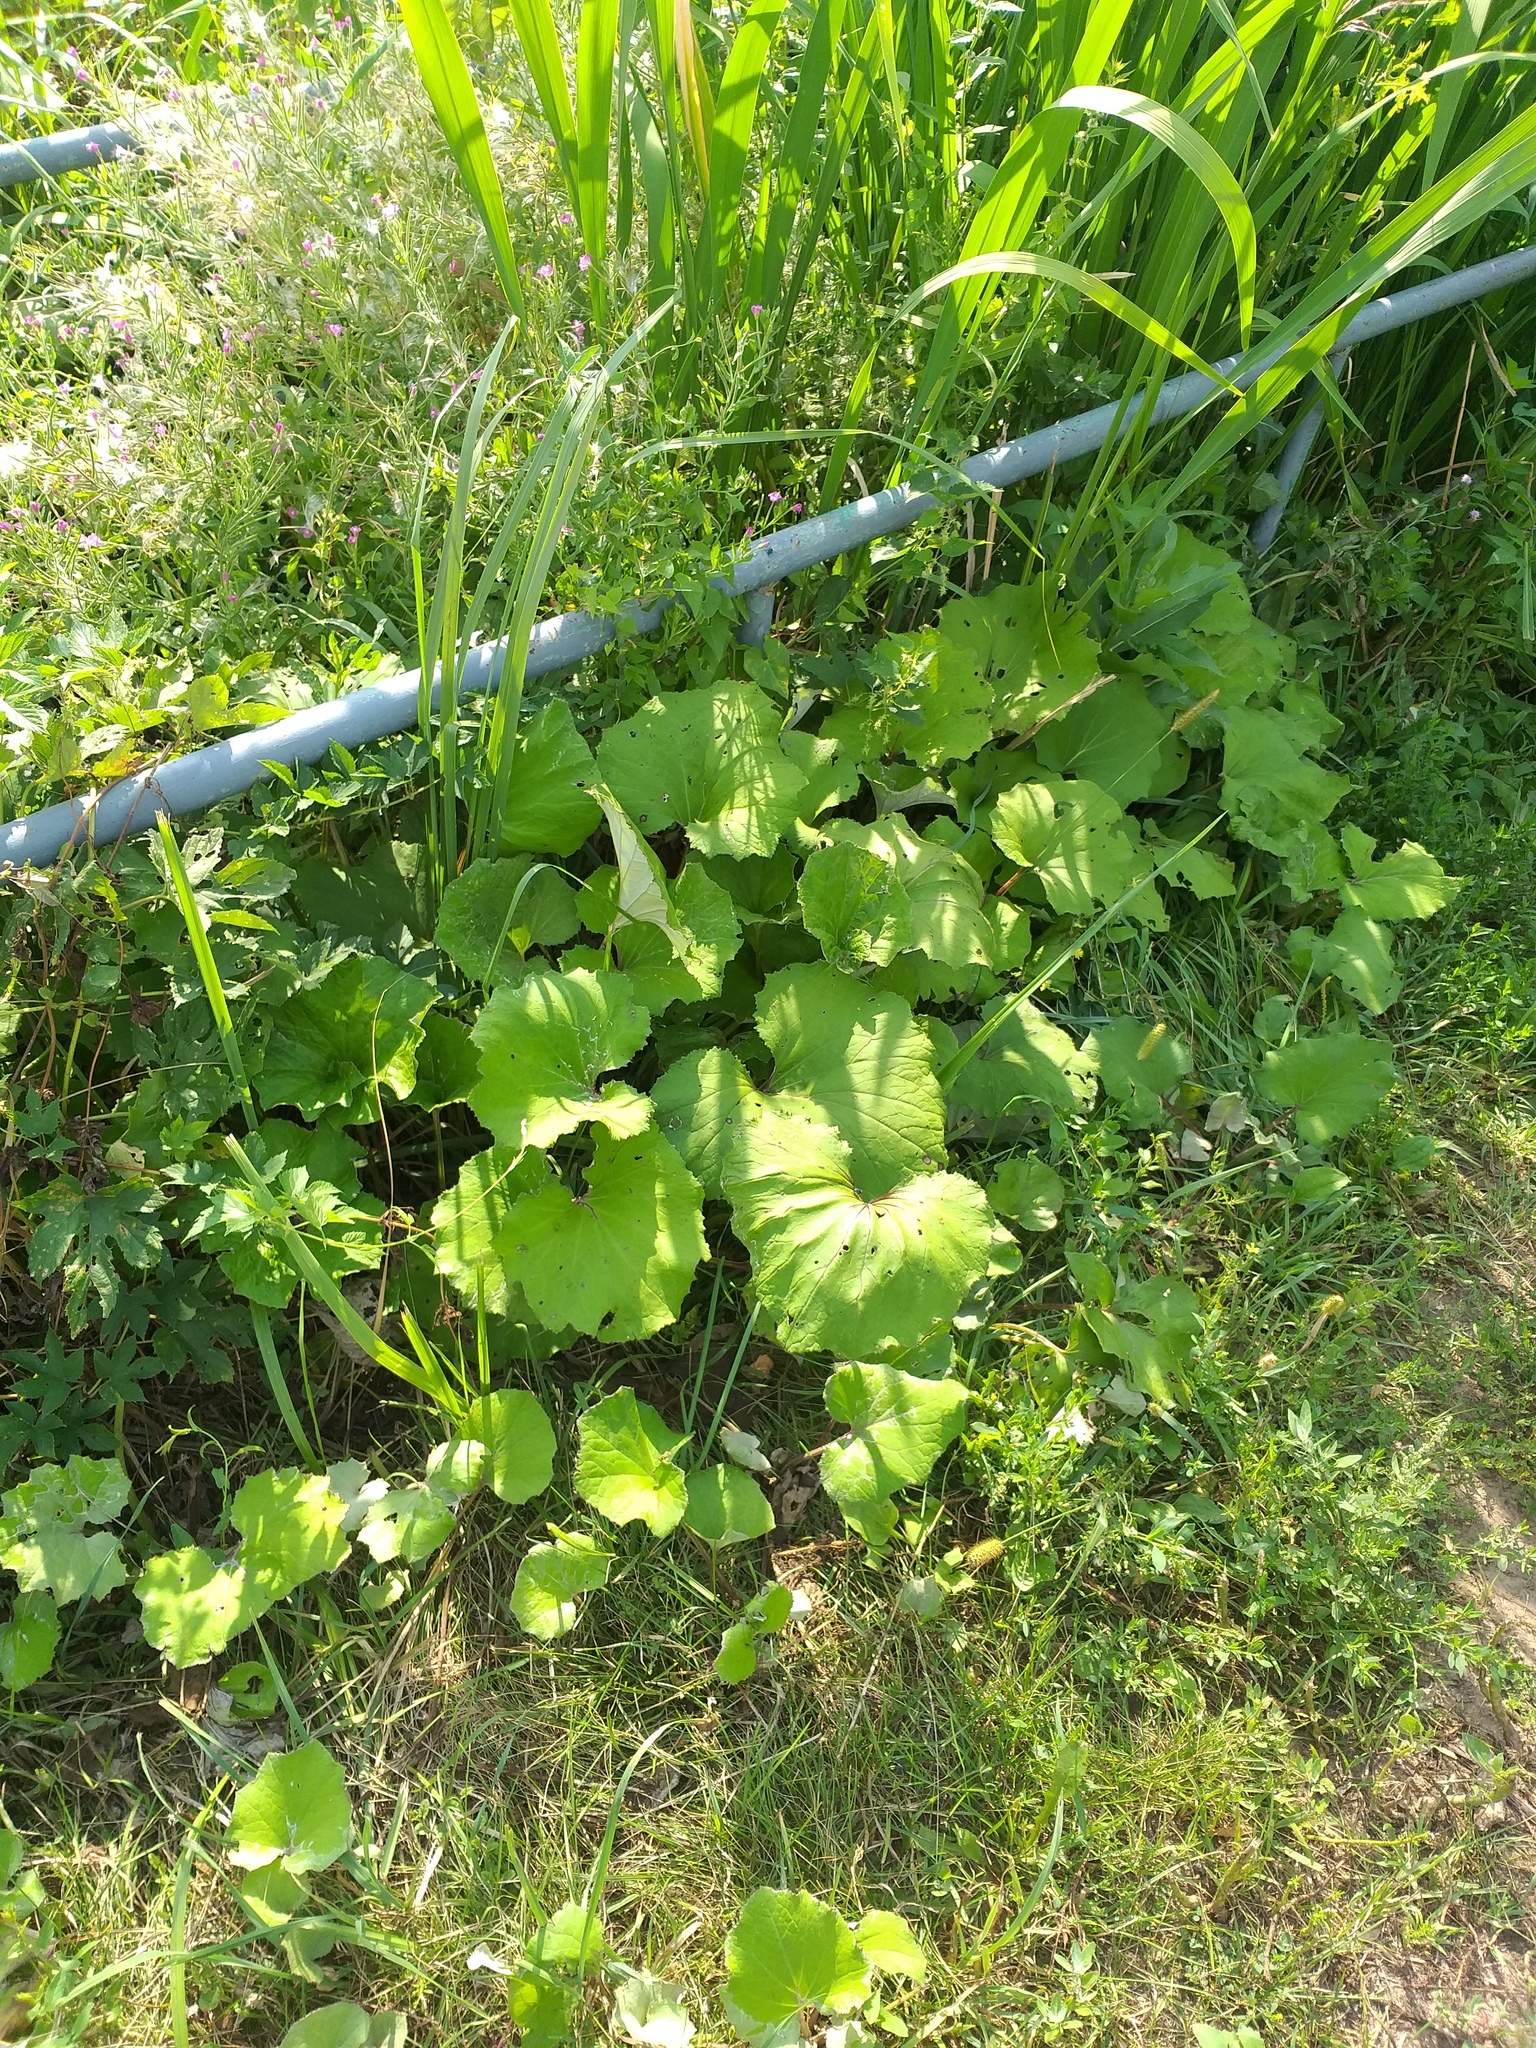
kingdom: Plantae
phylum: Tracheophyta
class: Magnoliopsida
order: Asterales
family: Asteraceae
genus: Tussilago
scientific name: Tussilago farfara
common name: Coltsfoot
